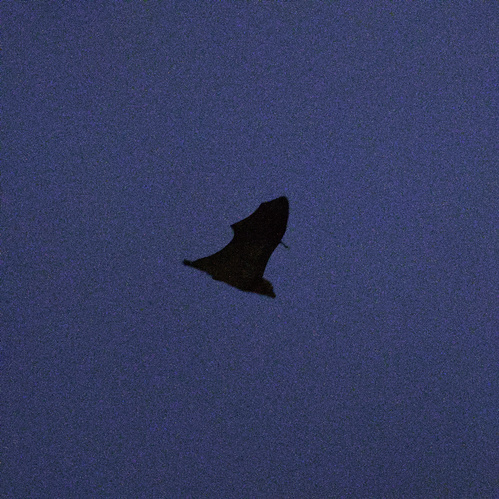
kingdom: Animalia
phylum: Chordata
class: Mammalia
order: Chiroptera
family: Pteropodidae
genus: Pteropus
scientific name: Pteropus poliocephalus
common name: Gray-headed flying fox
